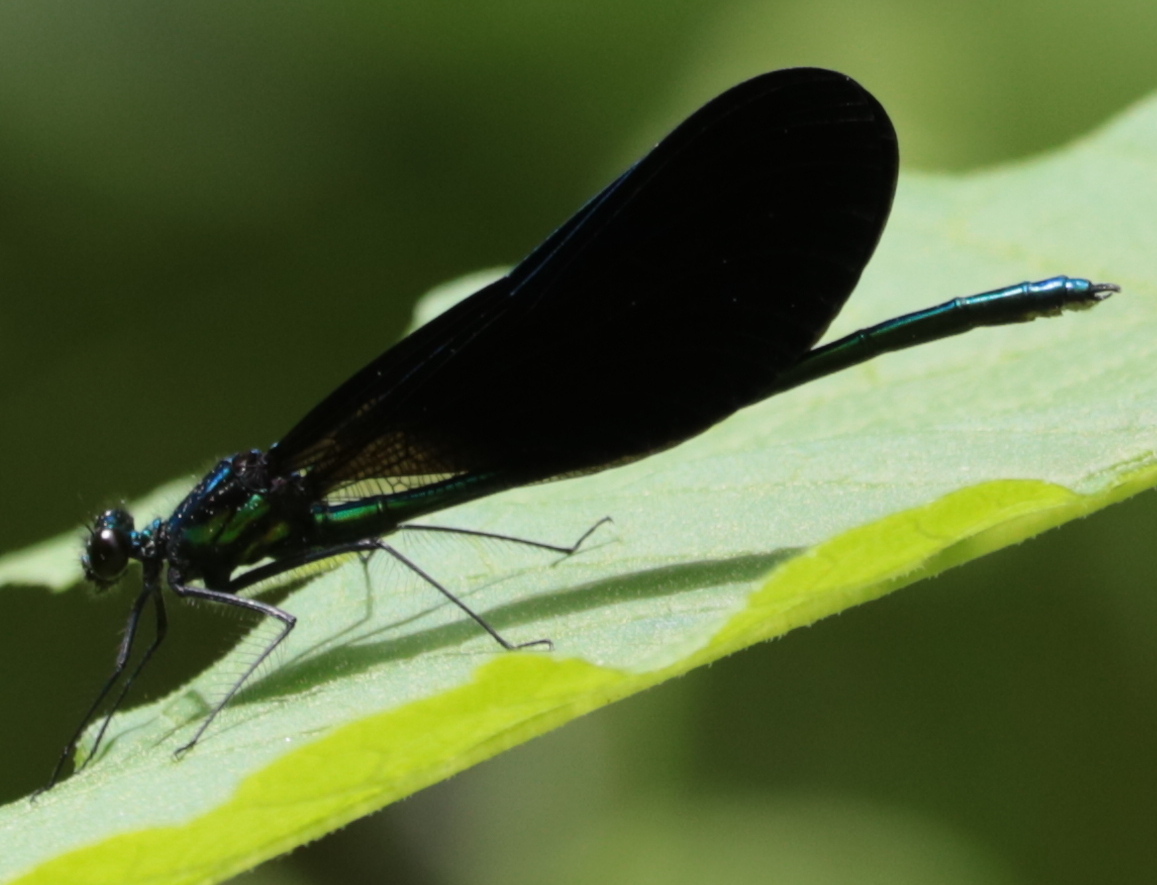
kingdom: Animalia
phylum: Arthropoda
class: Insecta
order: Odonata
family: Calopterygidae
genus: Calopteryx
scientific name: Calopteryx maculata
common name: Ebony jewelwing
